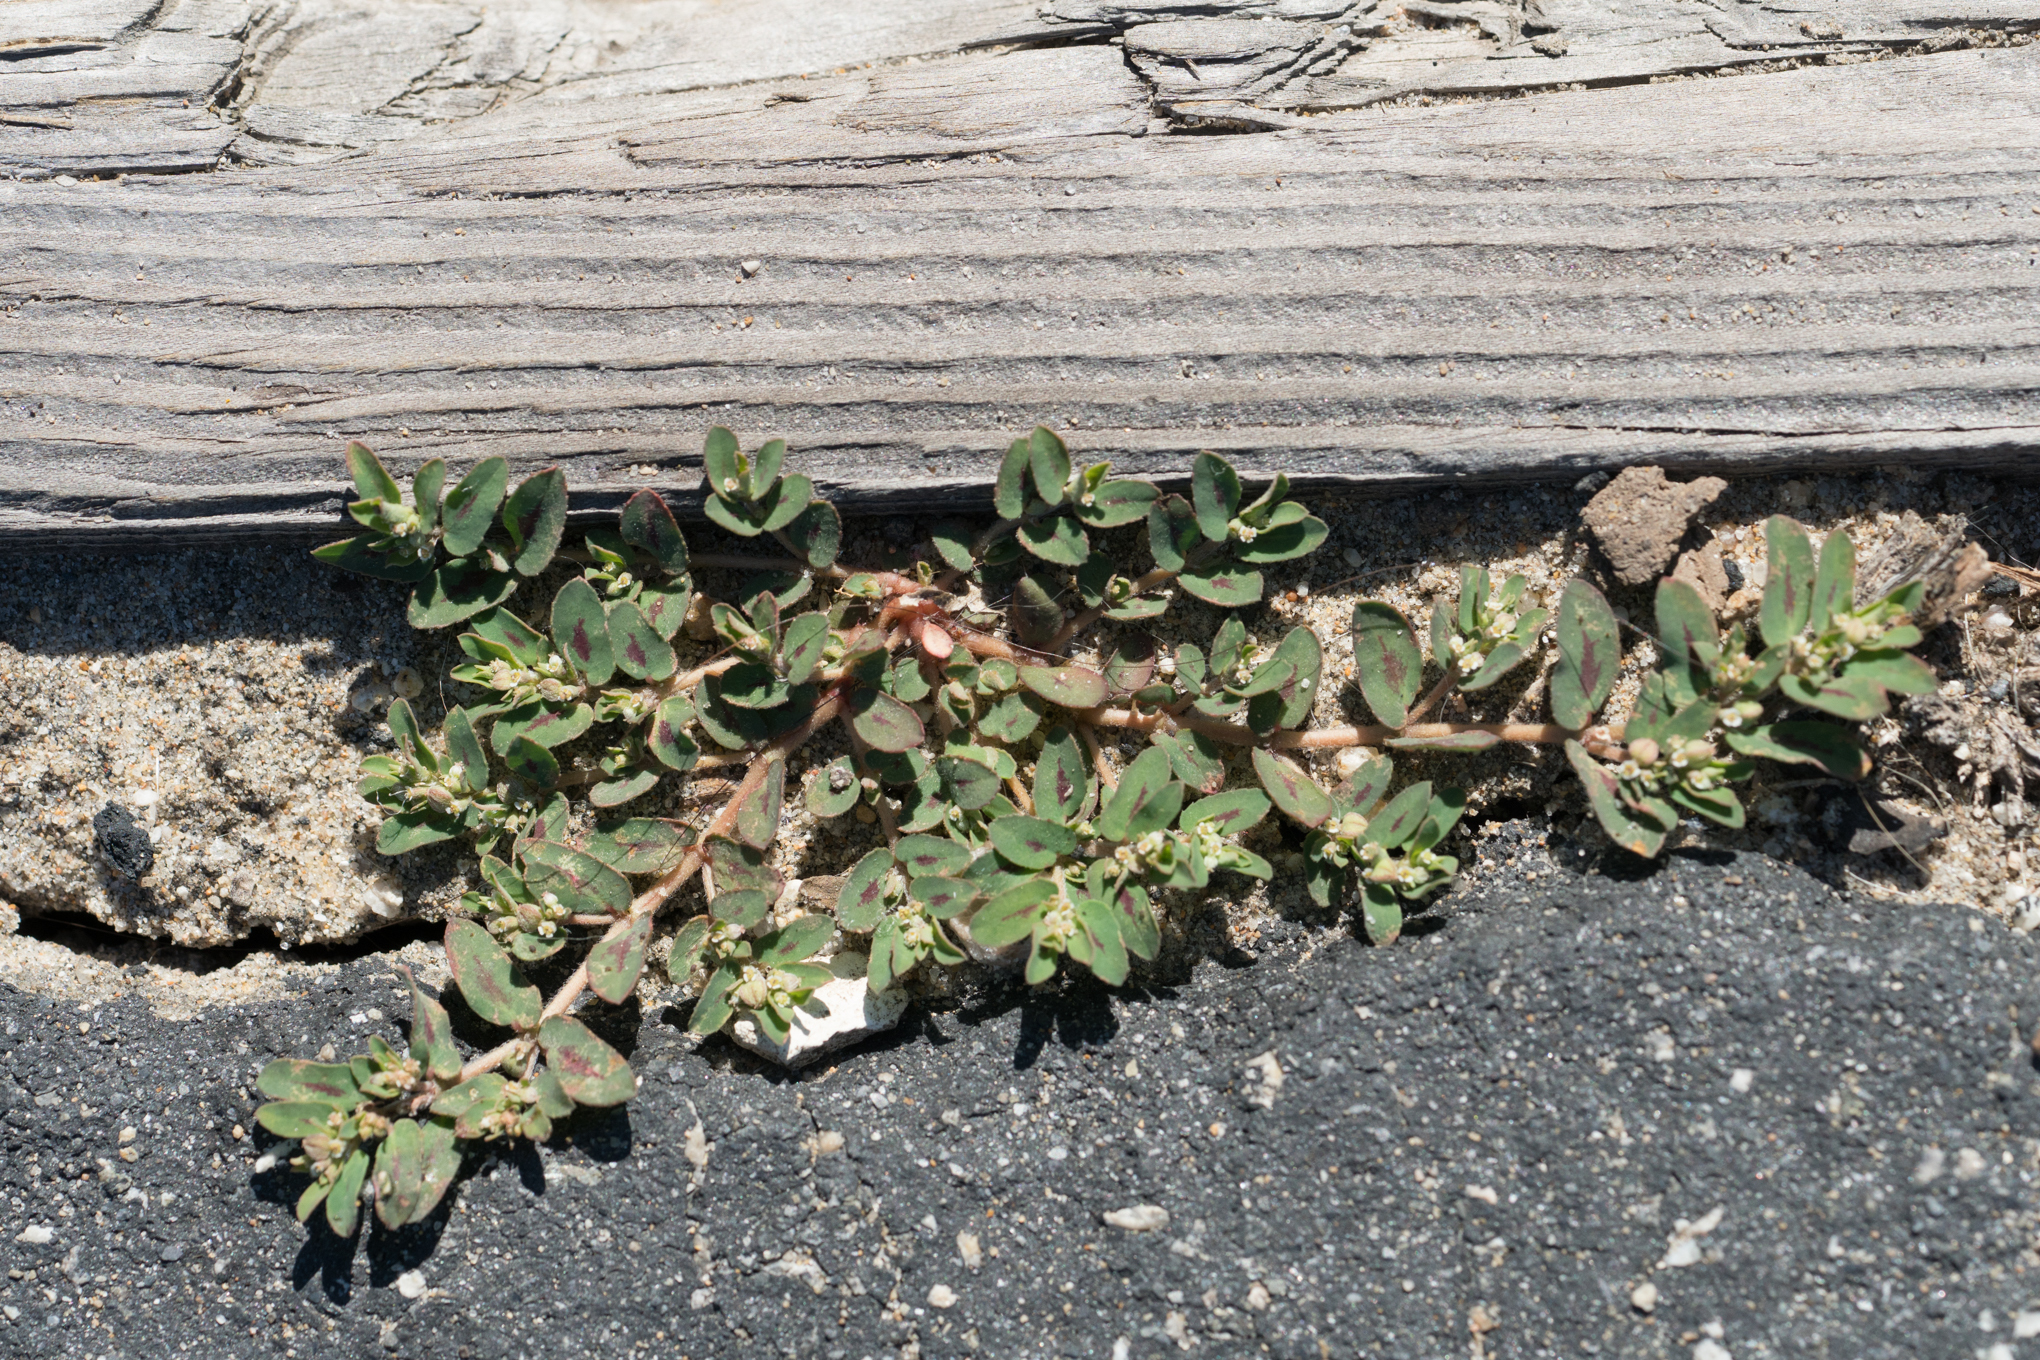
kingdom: Plantae
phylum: Tracheophyta
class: Magnoliopsida
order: Malpighiales
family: Euphorbiaceae
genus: Euphorbia
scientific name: Euphorbia maculata
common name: Spotted spurge
